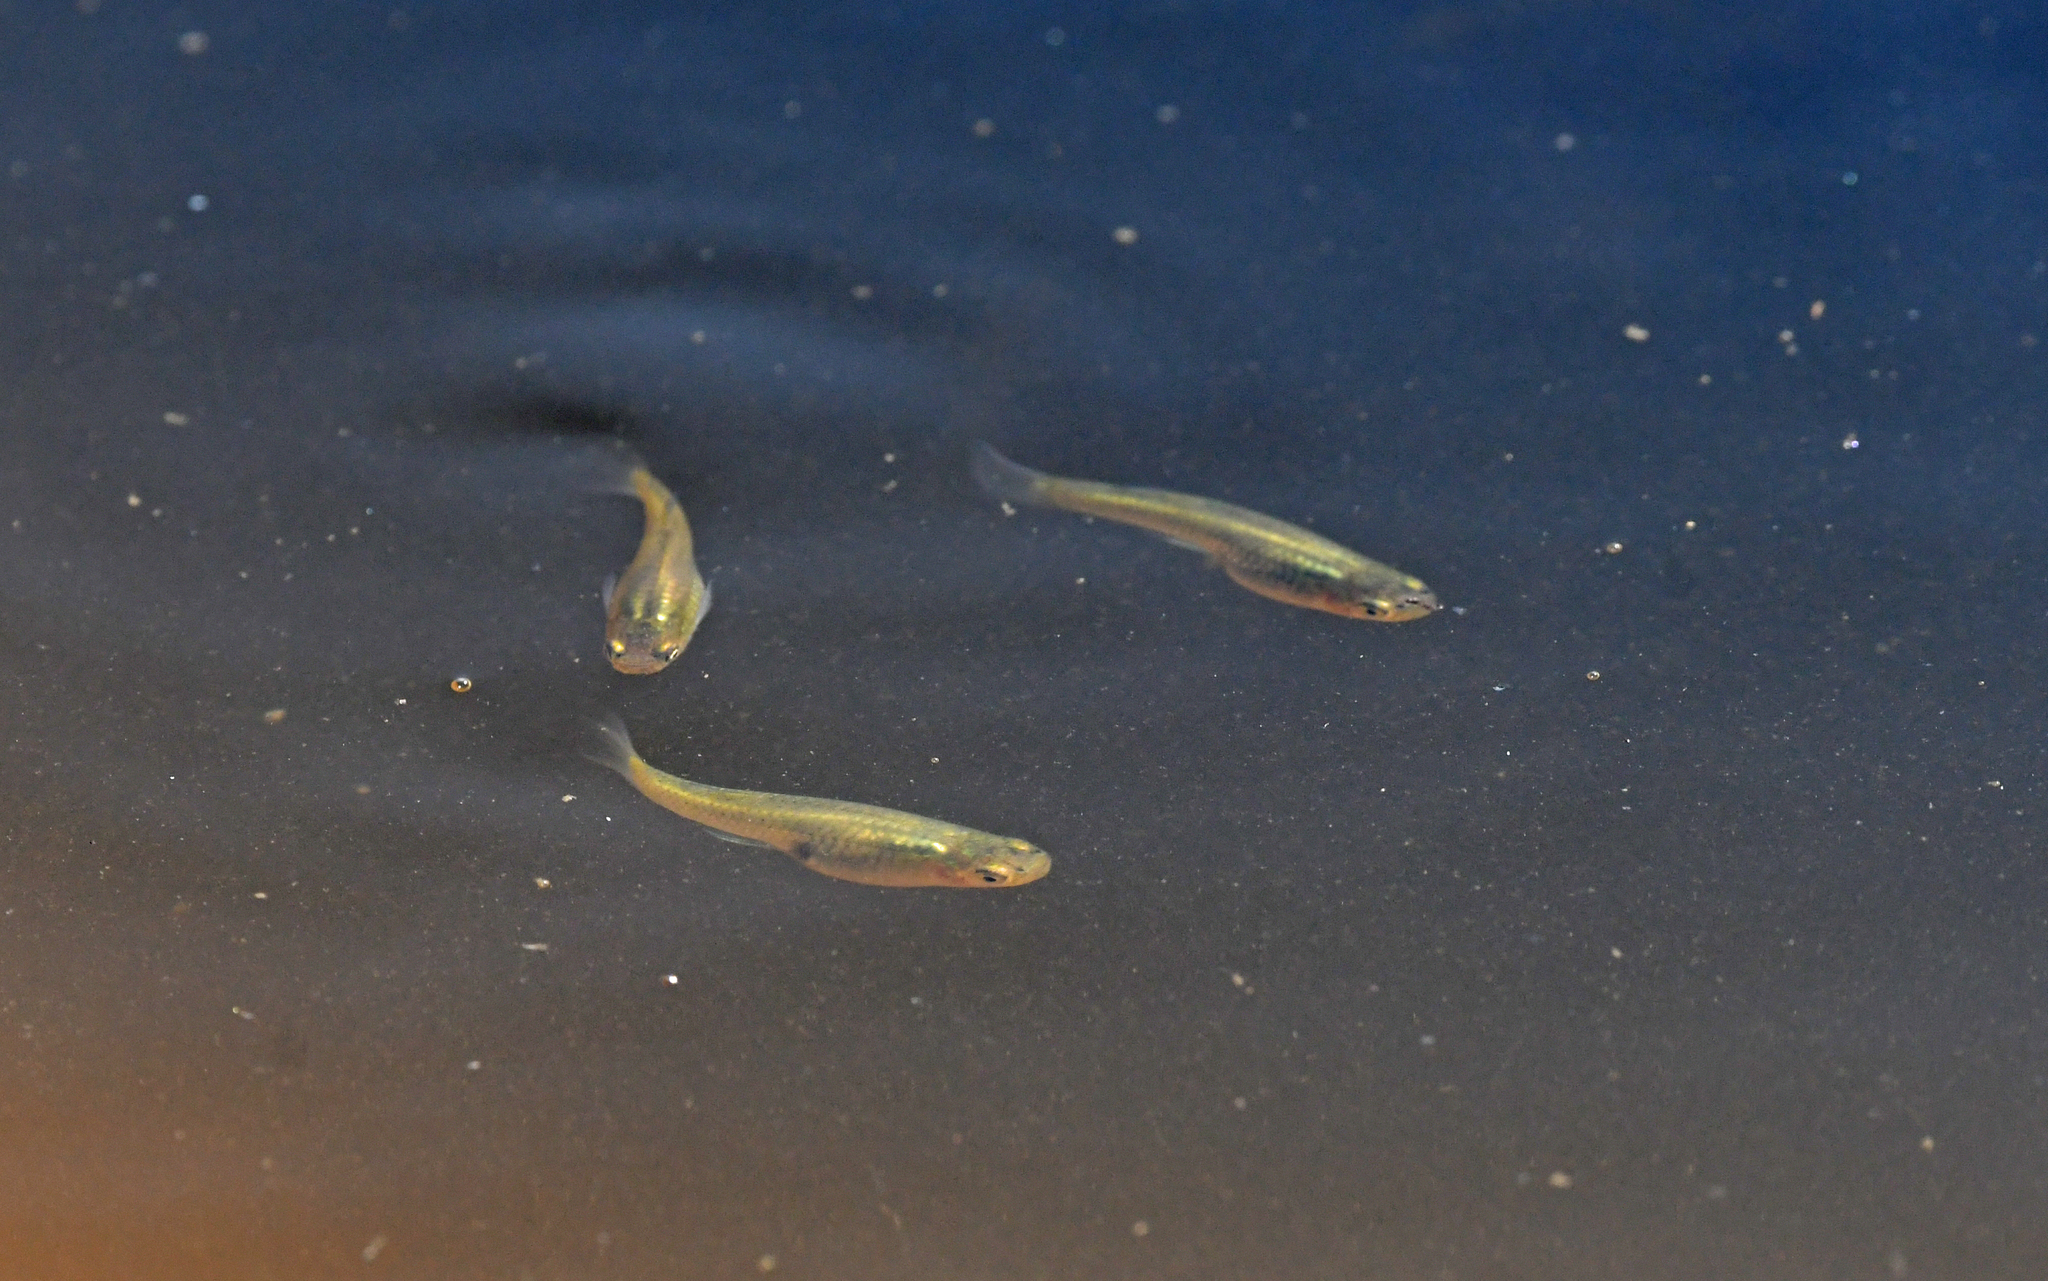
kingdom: Animalia
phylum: Chordata
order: Cyprinodontiformes
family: Poeciliidae
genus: Gambusia
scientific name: Gambusia holbrooki
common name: Eastern mosquitofish
